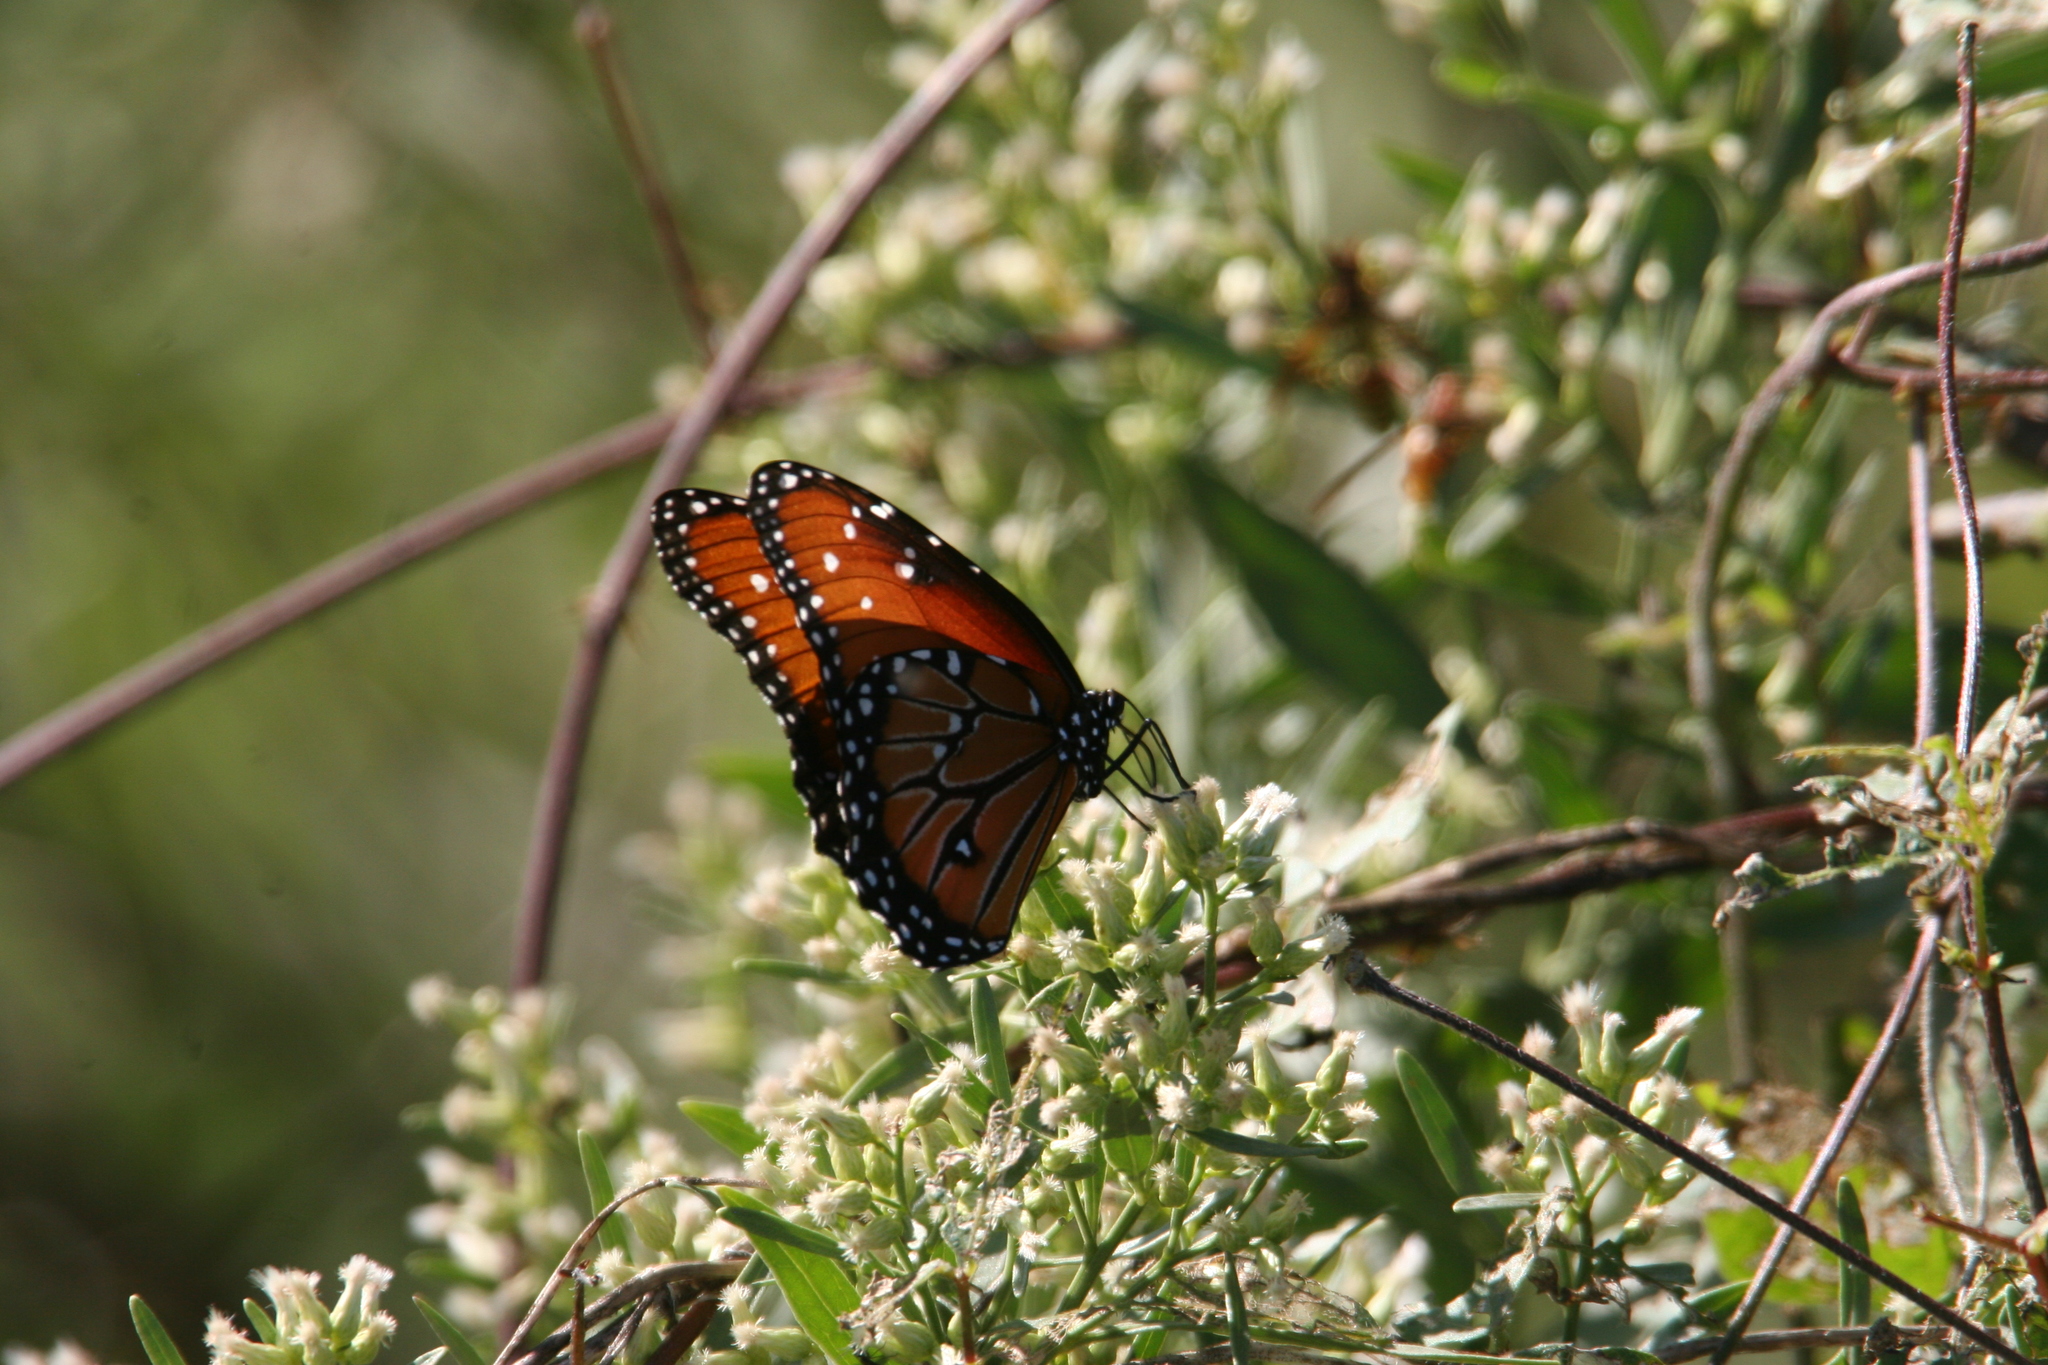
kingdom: Animalia
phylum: Arthropoda
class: Insecta
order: Lepidoptera
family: Nymphalidae
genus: Danaus
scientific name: Danaus gilippus
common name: Queen
